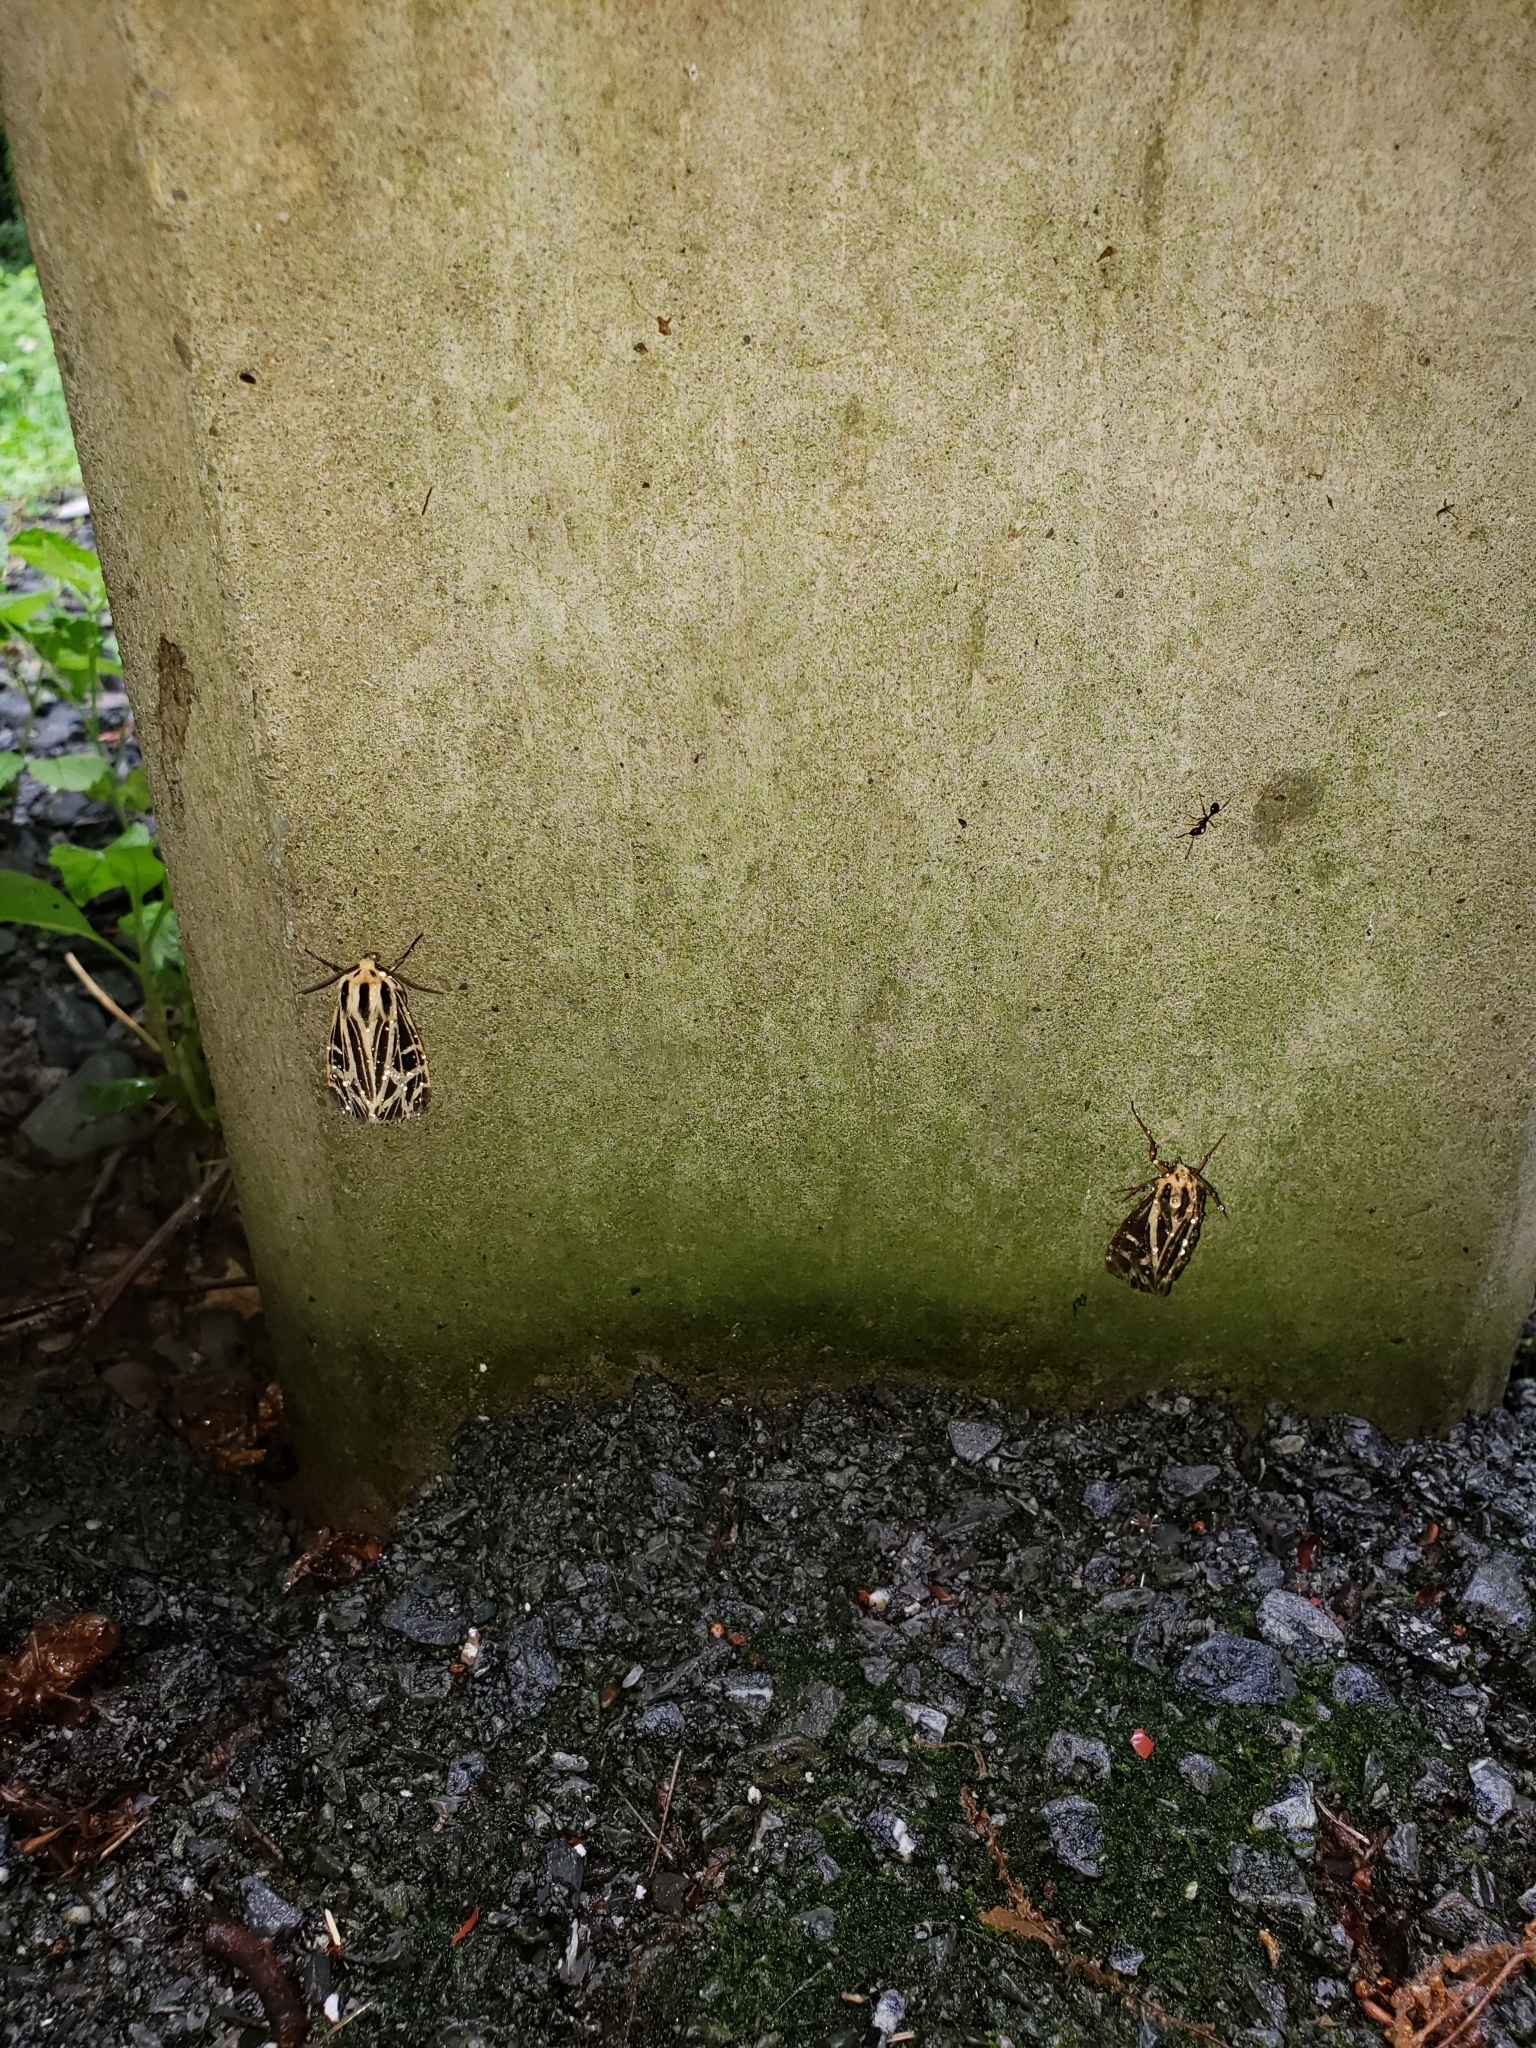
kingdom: Animalia
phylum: Arthropoda
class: Insecta
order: Lepidoptera
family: Erebidae
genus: Apantesis
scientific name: Apantesis
